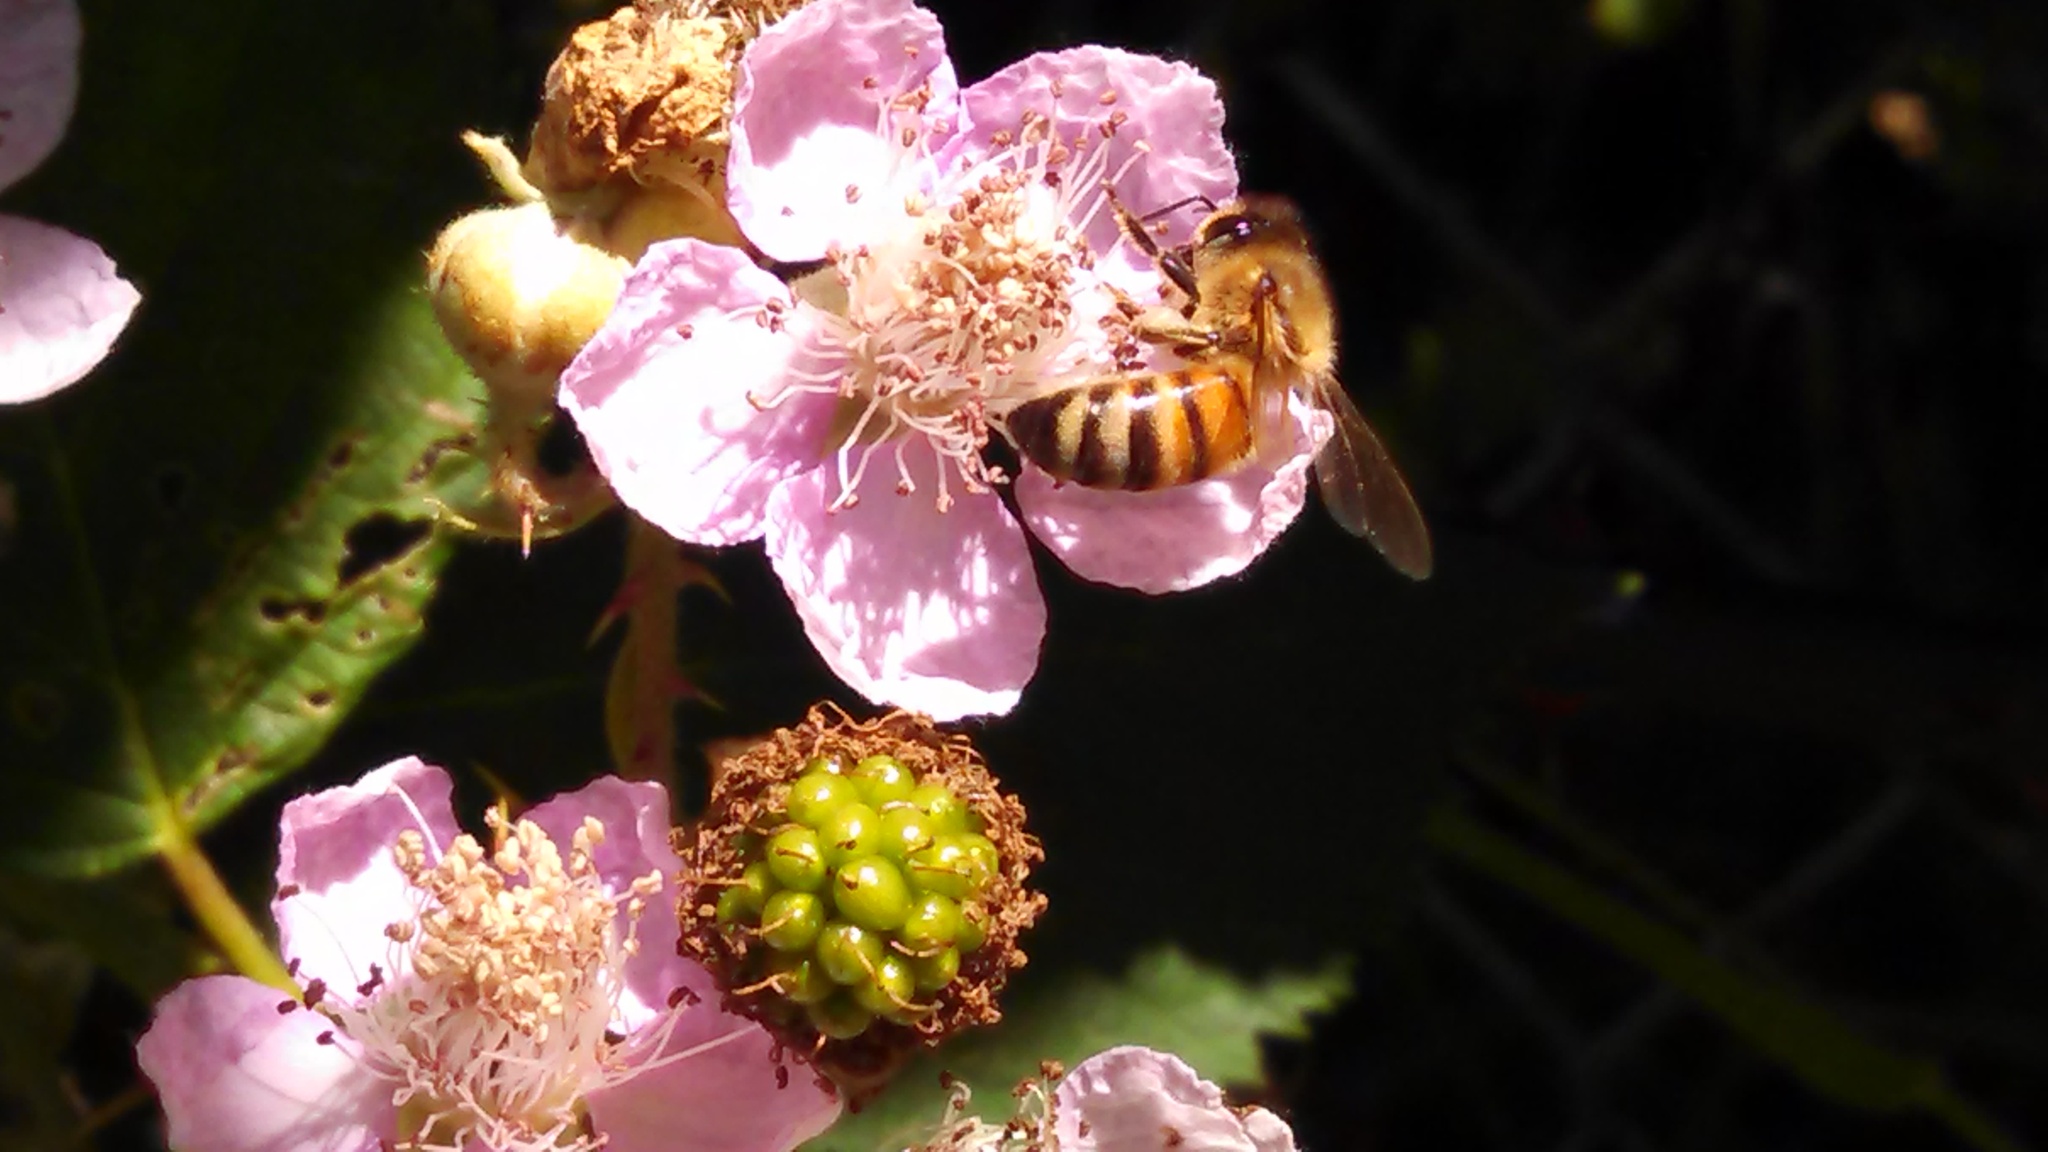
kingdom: Animalia
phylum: Arthropoda
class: Insecta
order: Hymenoptera
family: Apidae
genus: Apis
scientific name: Apis mellifera
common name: Honey bee
